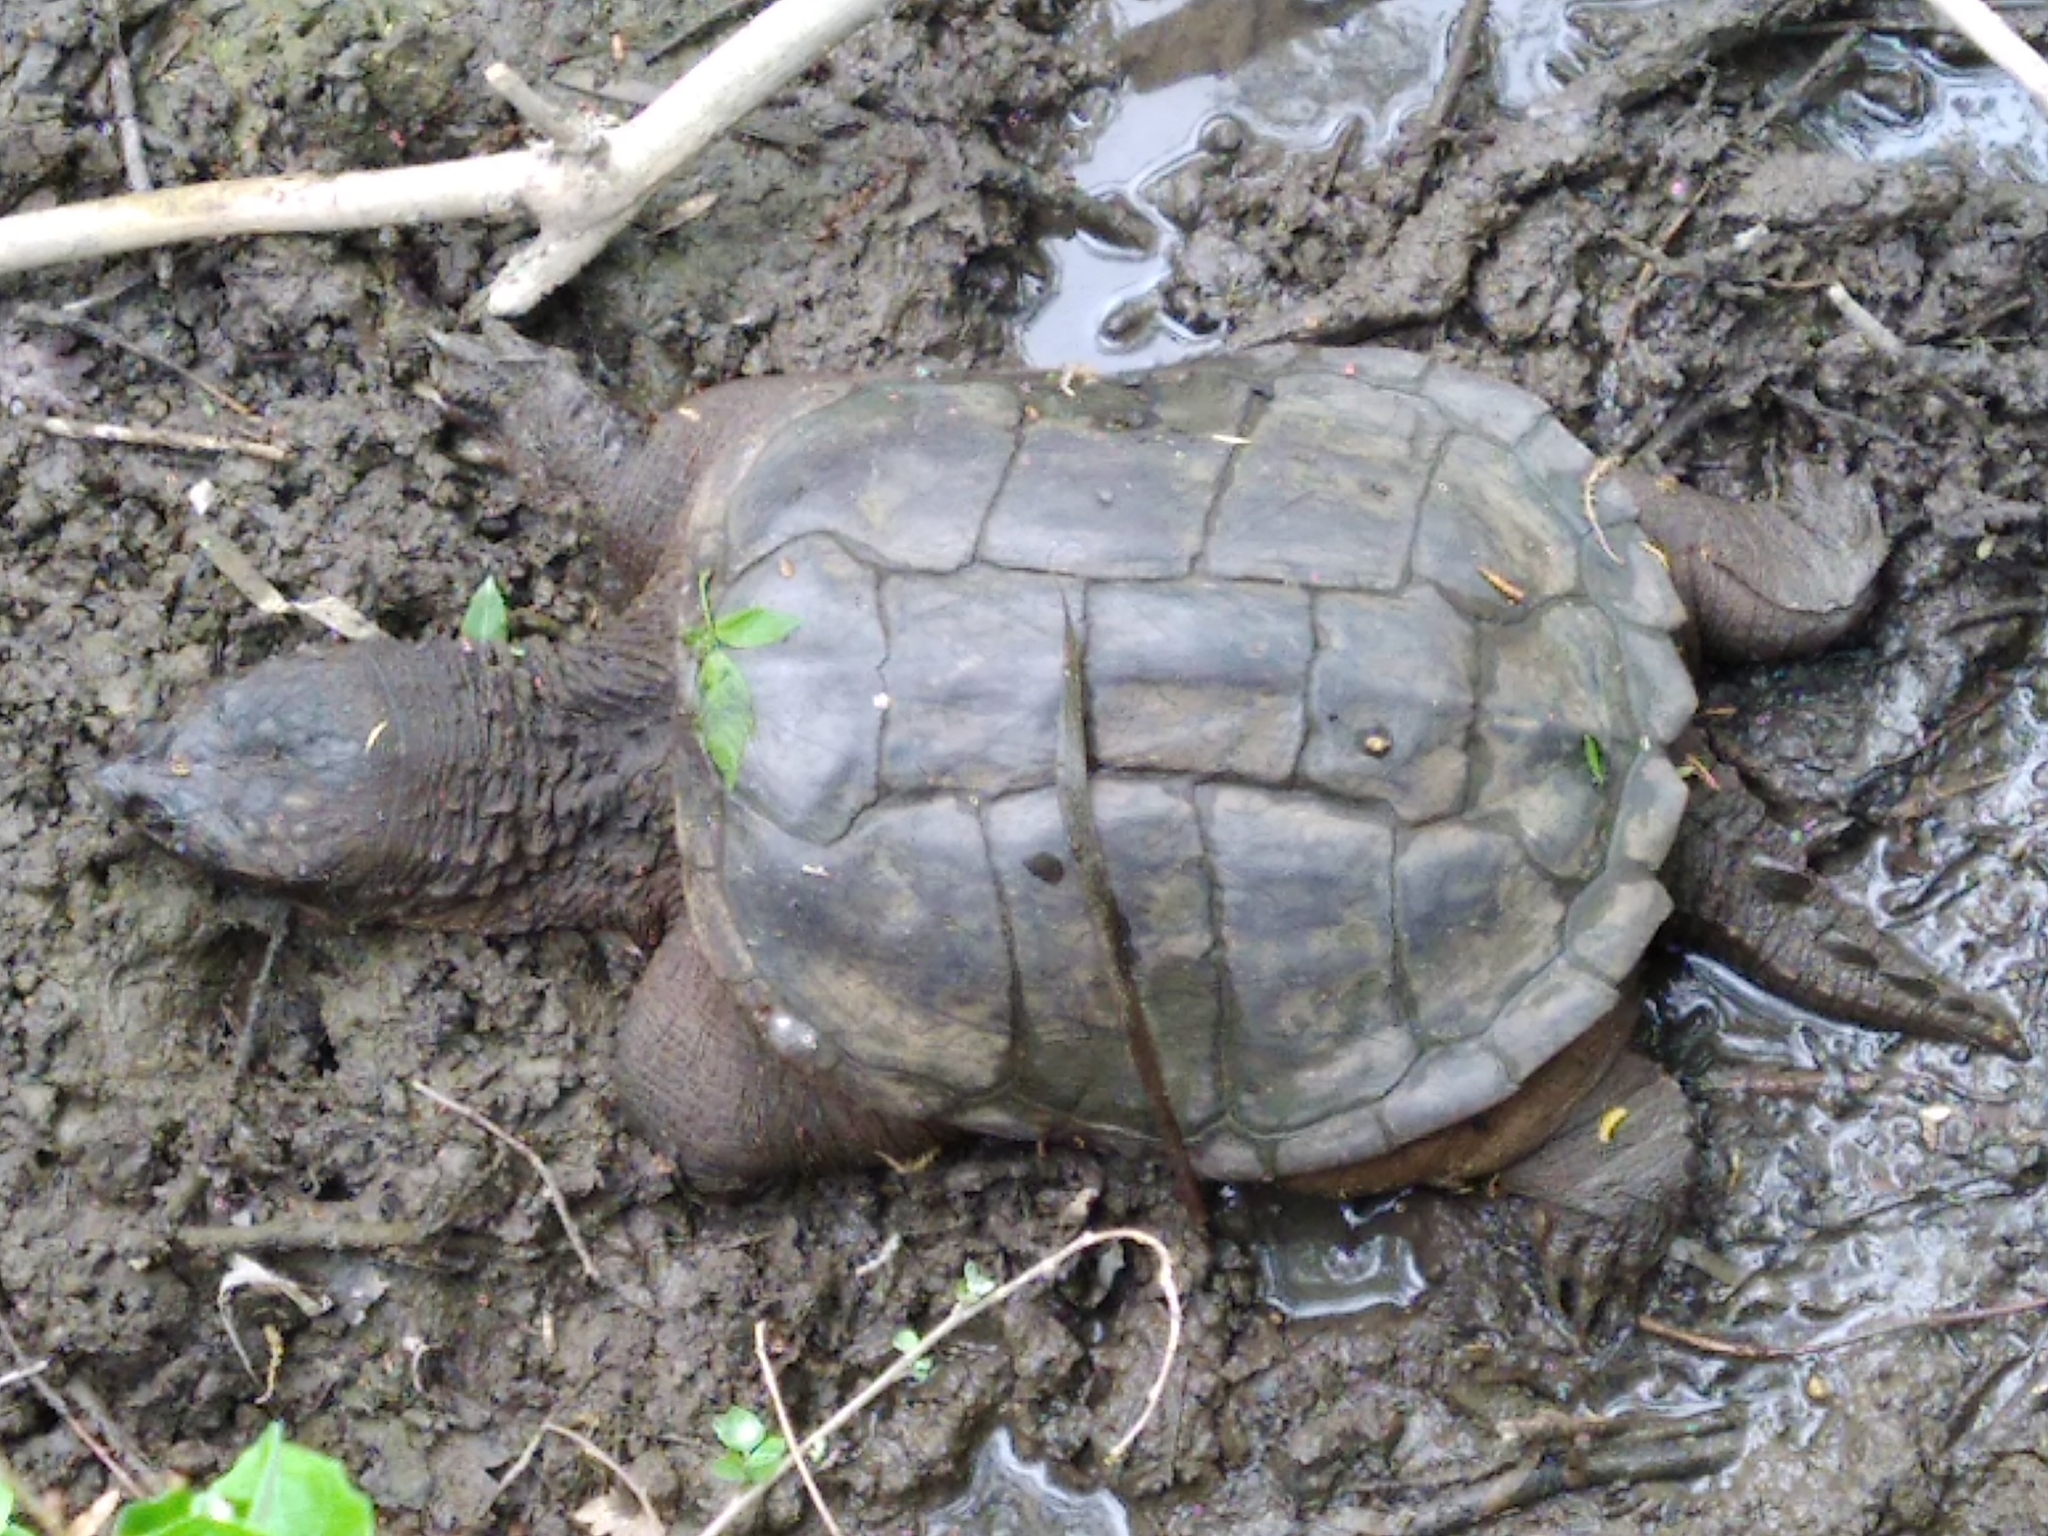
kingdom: Animalia
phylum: Chordata
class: Testudines
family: Chelydridae
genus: Chelydra
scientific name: Chelydra serpentina
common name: Common snapping turtle
